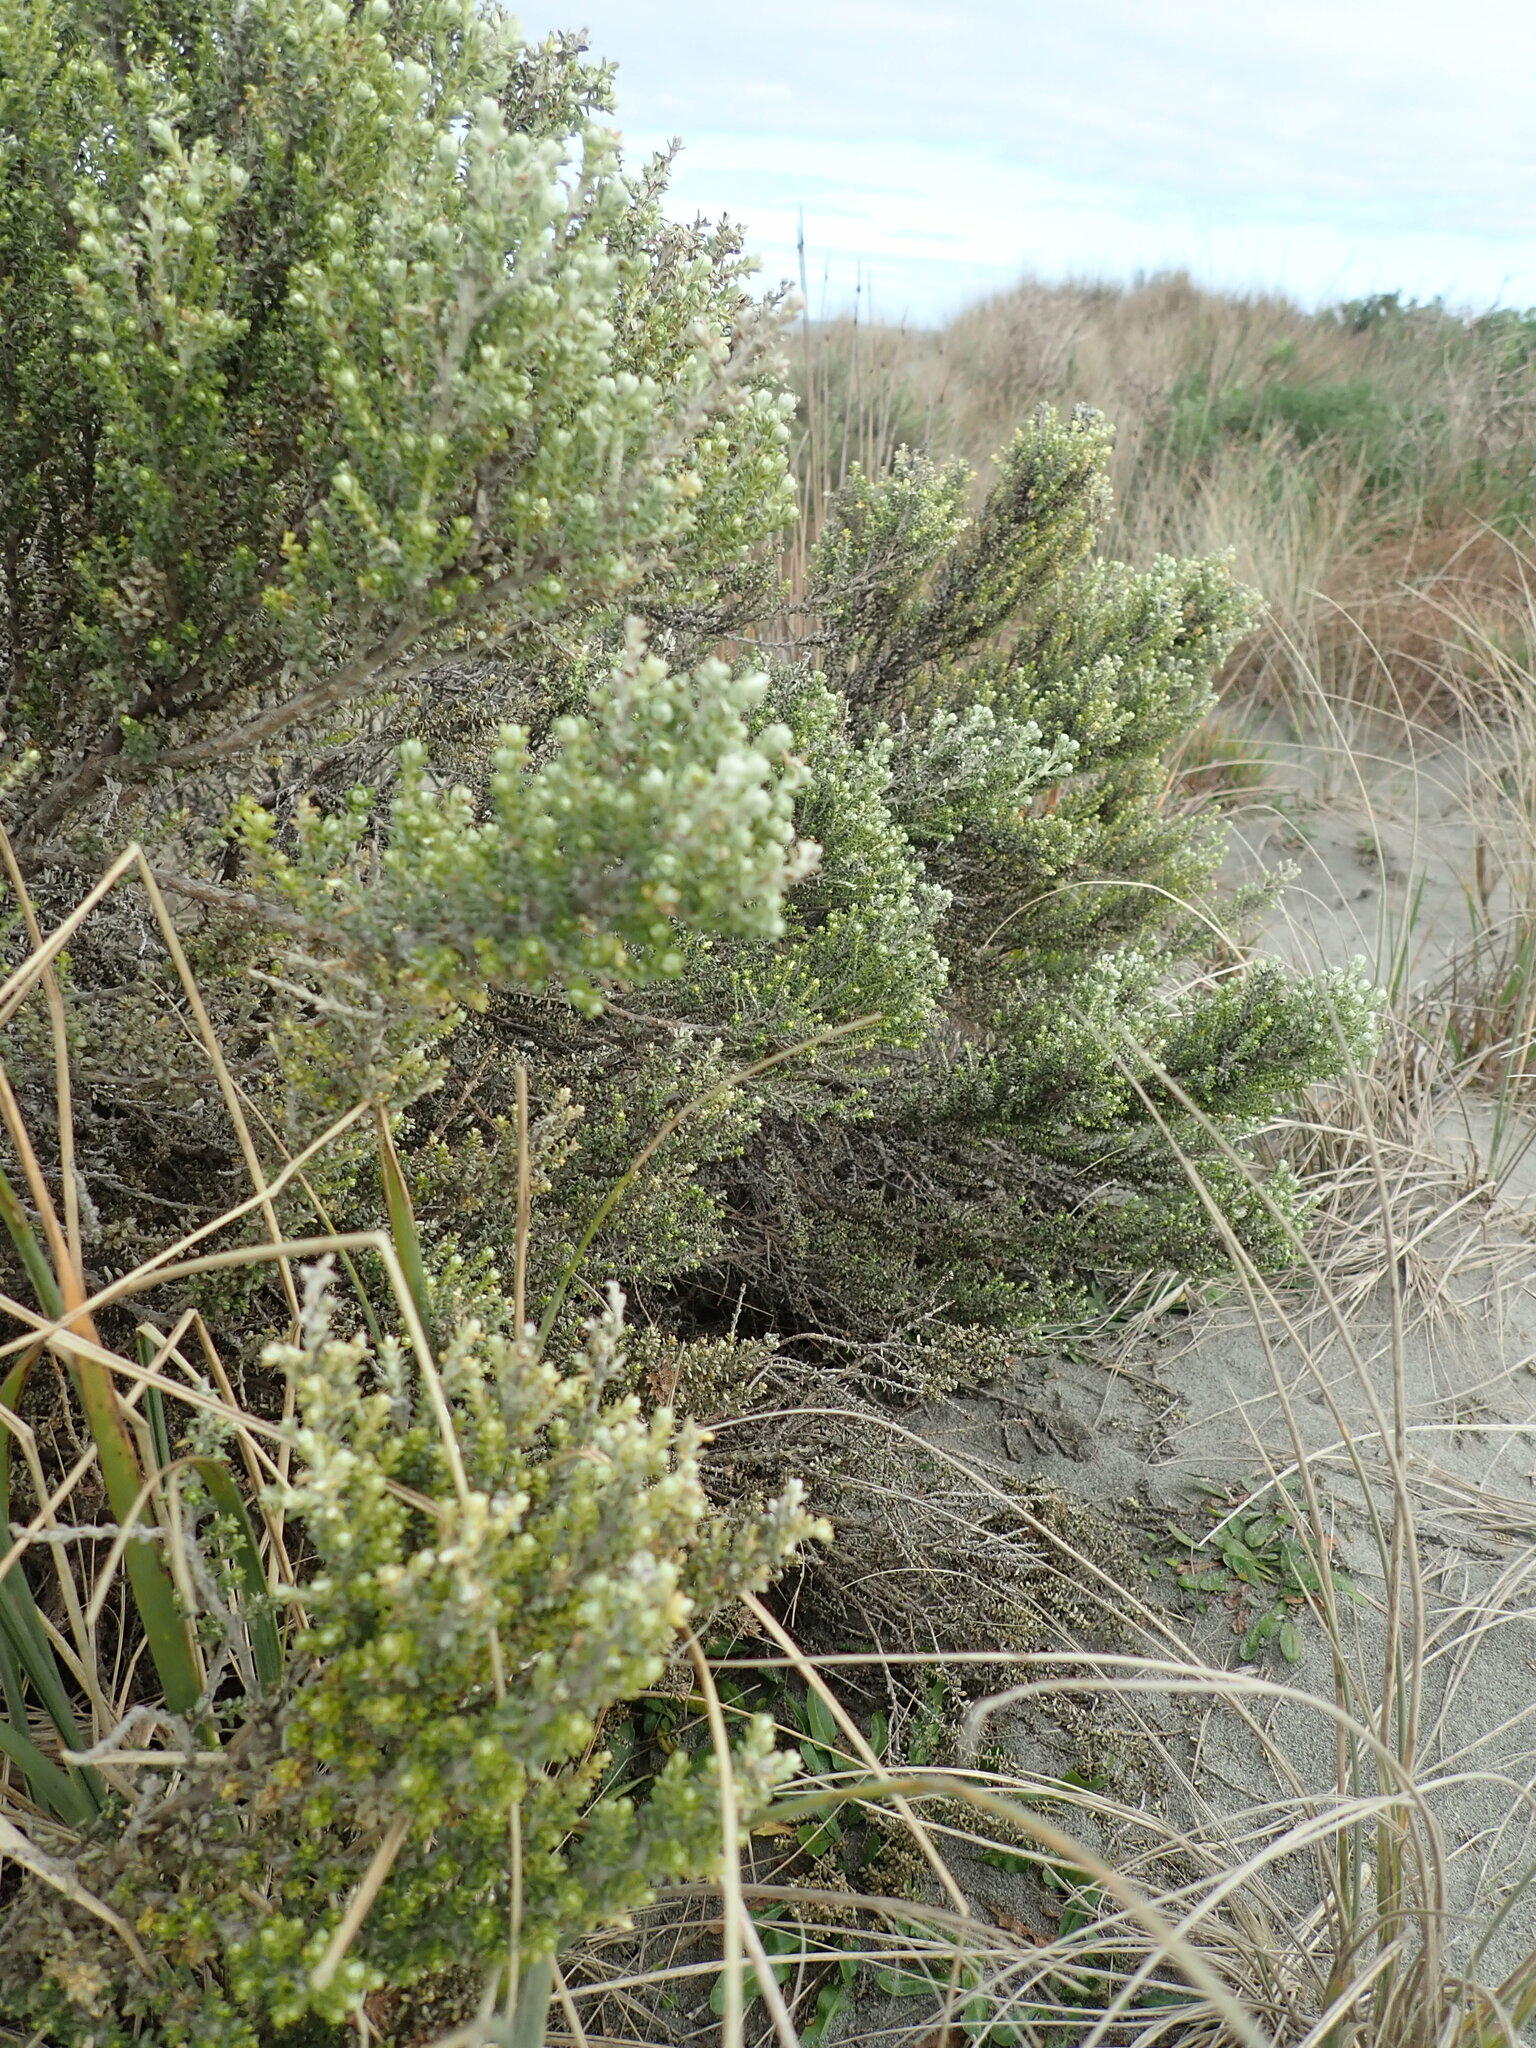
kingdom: Plantae
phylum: Tracheophyta
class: Magnoliopsida
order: Asterales
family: Asteraceae
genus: Ozothamnus
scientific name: Ozothamnus leptophyllus
